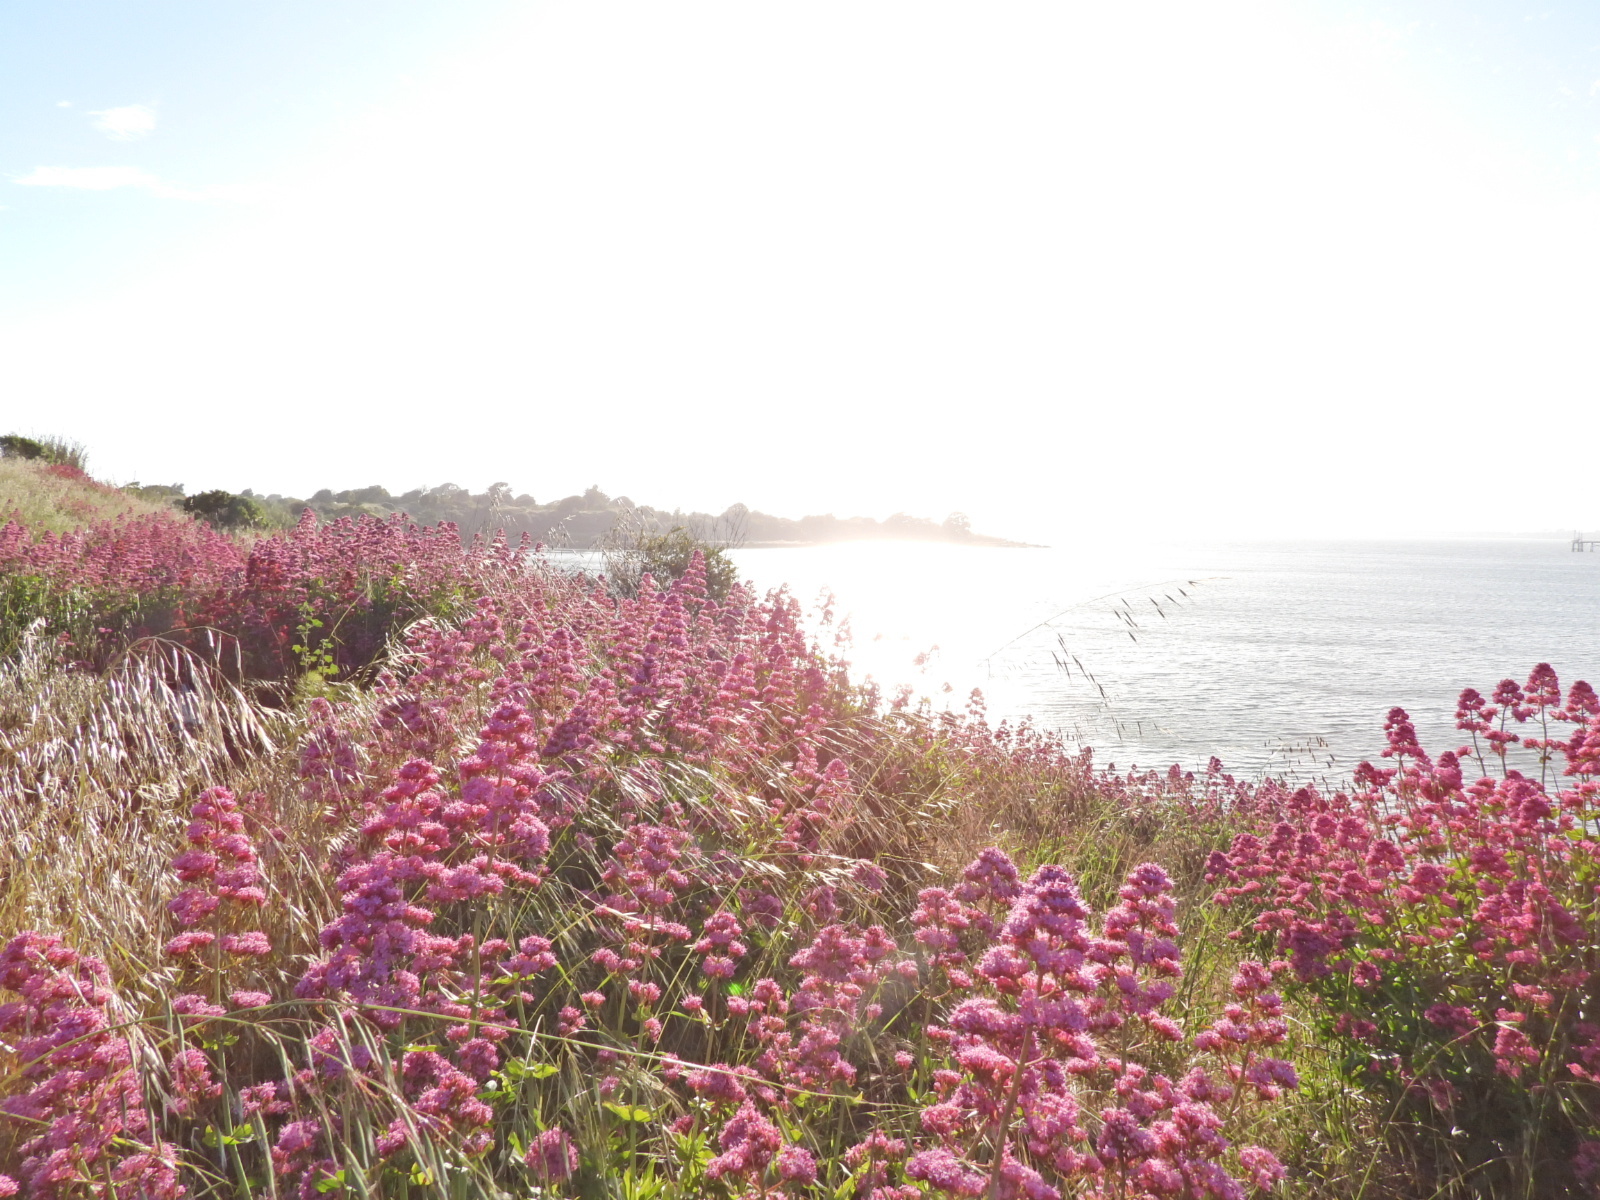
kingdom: Plantae
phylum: Tracheophyta
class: Magnoliopsida
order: Dipsacales
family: Caprifoliaceae
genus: Centranthus
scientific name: Centranthus ruber
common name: Red valerian
